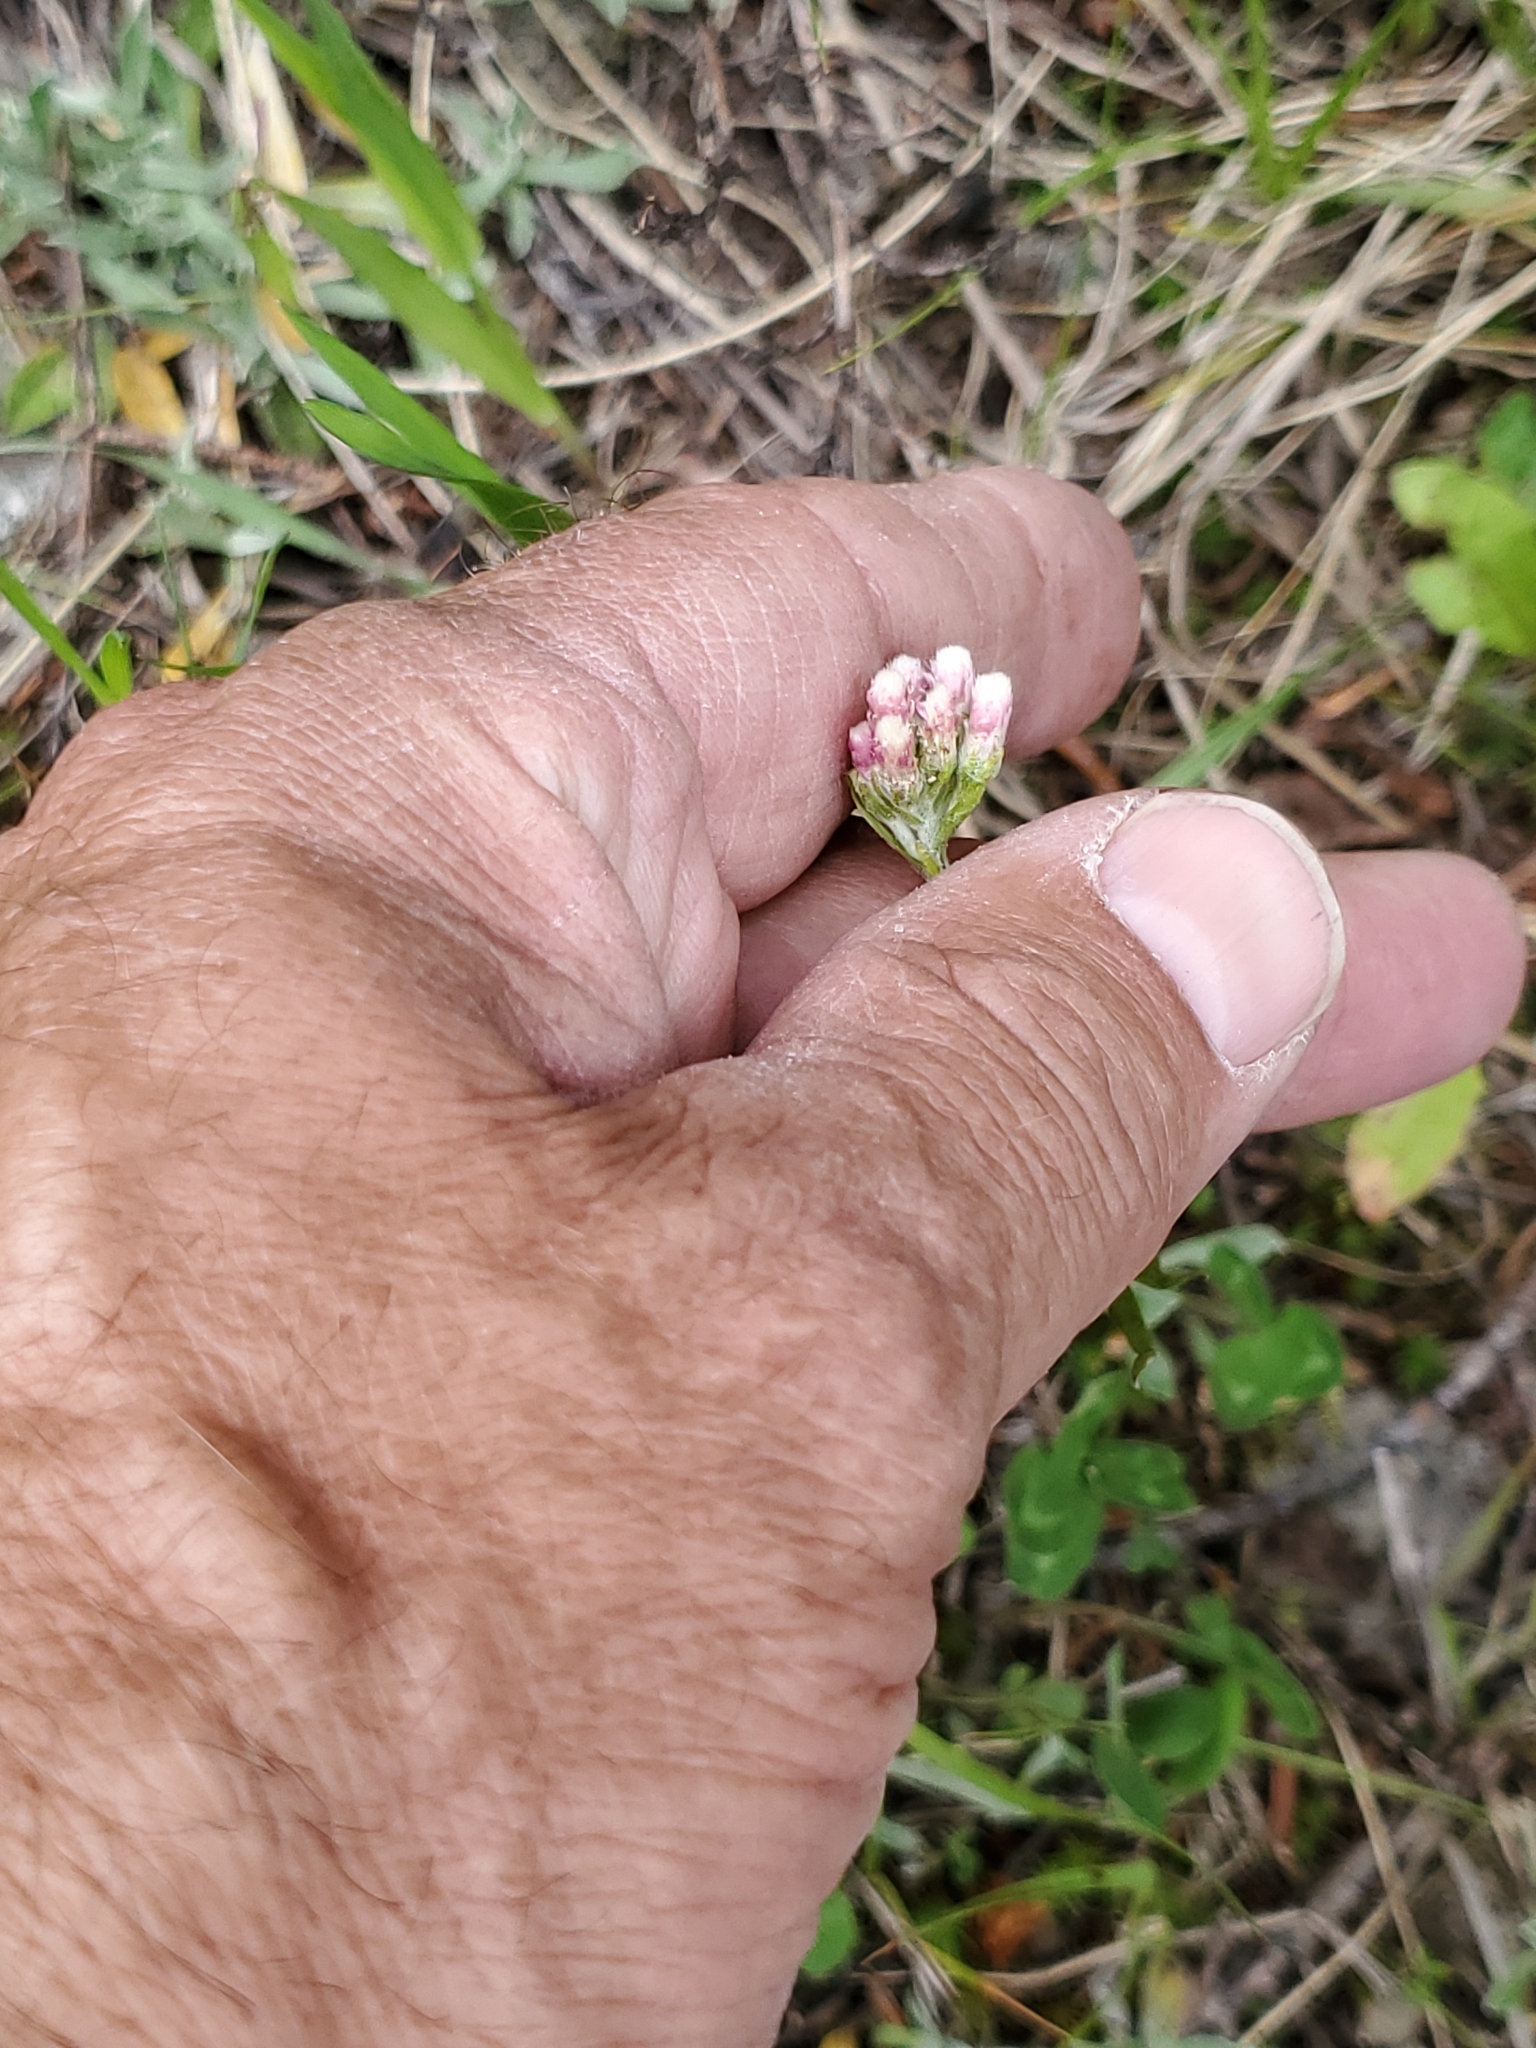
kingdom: Plantae
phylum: Tracheophyta
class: Magnoliopsida
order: Asterales
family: Asteraceae
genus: Antennaria
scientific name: Antennaria rosea
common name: Rosy pussytoes
